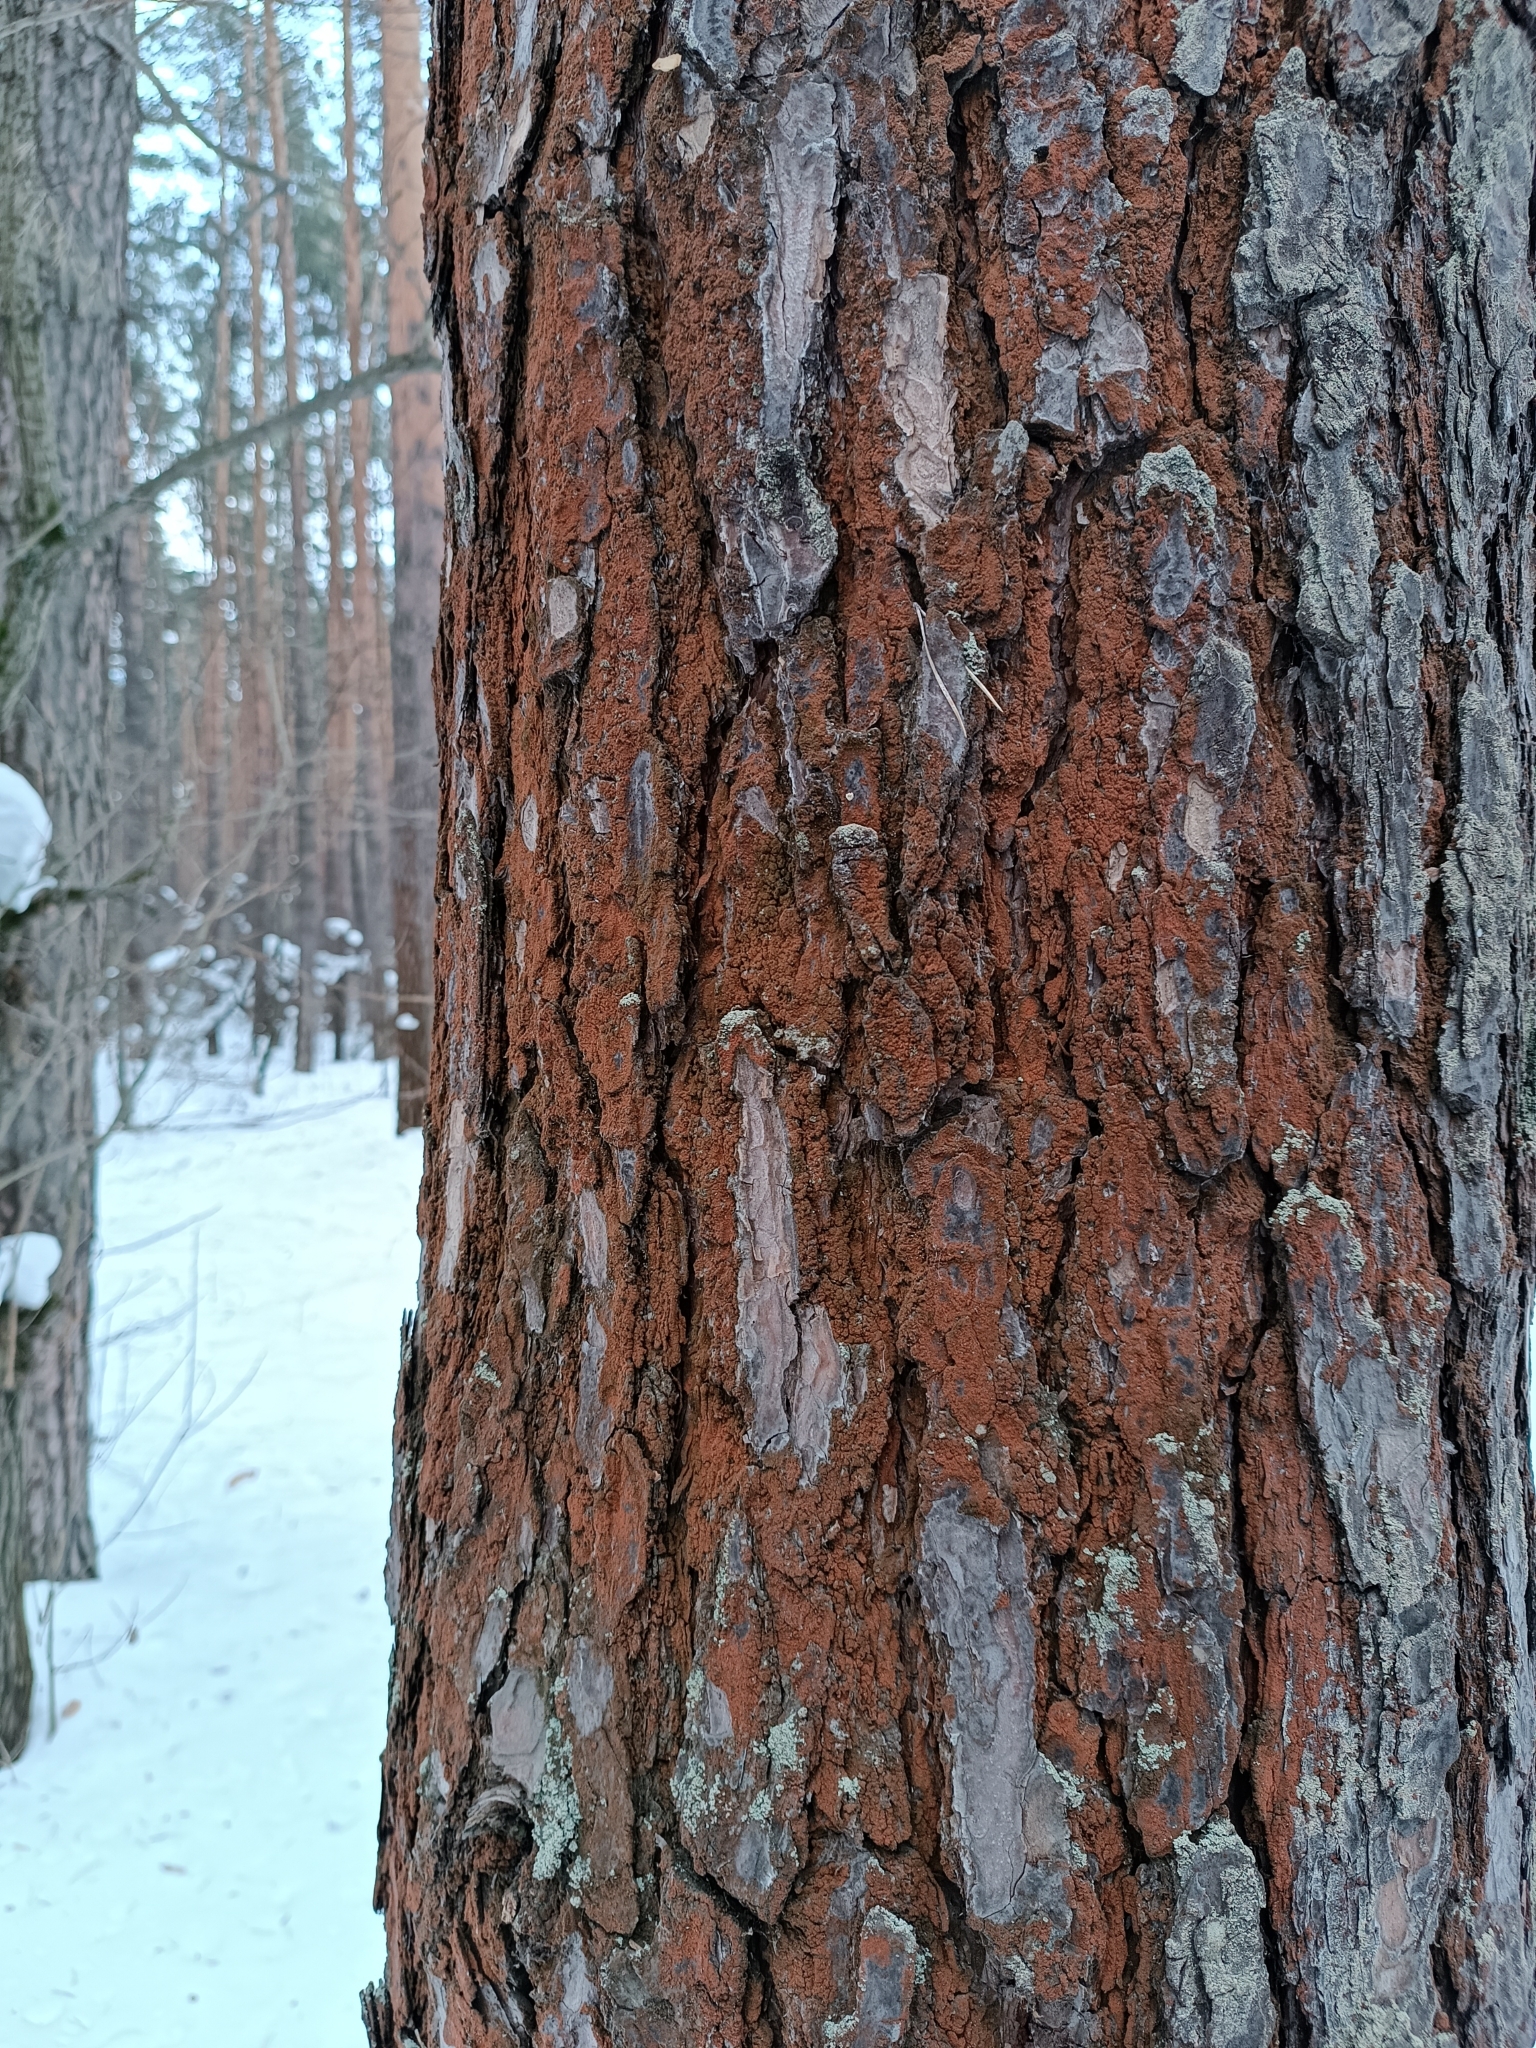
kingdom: Plantae
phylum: Chlorophyta
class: Ulvophyceae
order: Trentepohliales
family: Trentepohliaceae
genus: Trentepohlia
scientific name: Trentepohlia aurea
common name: Orange rock hair
